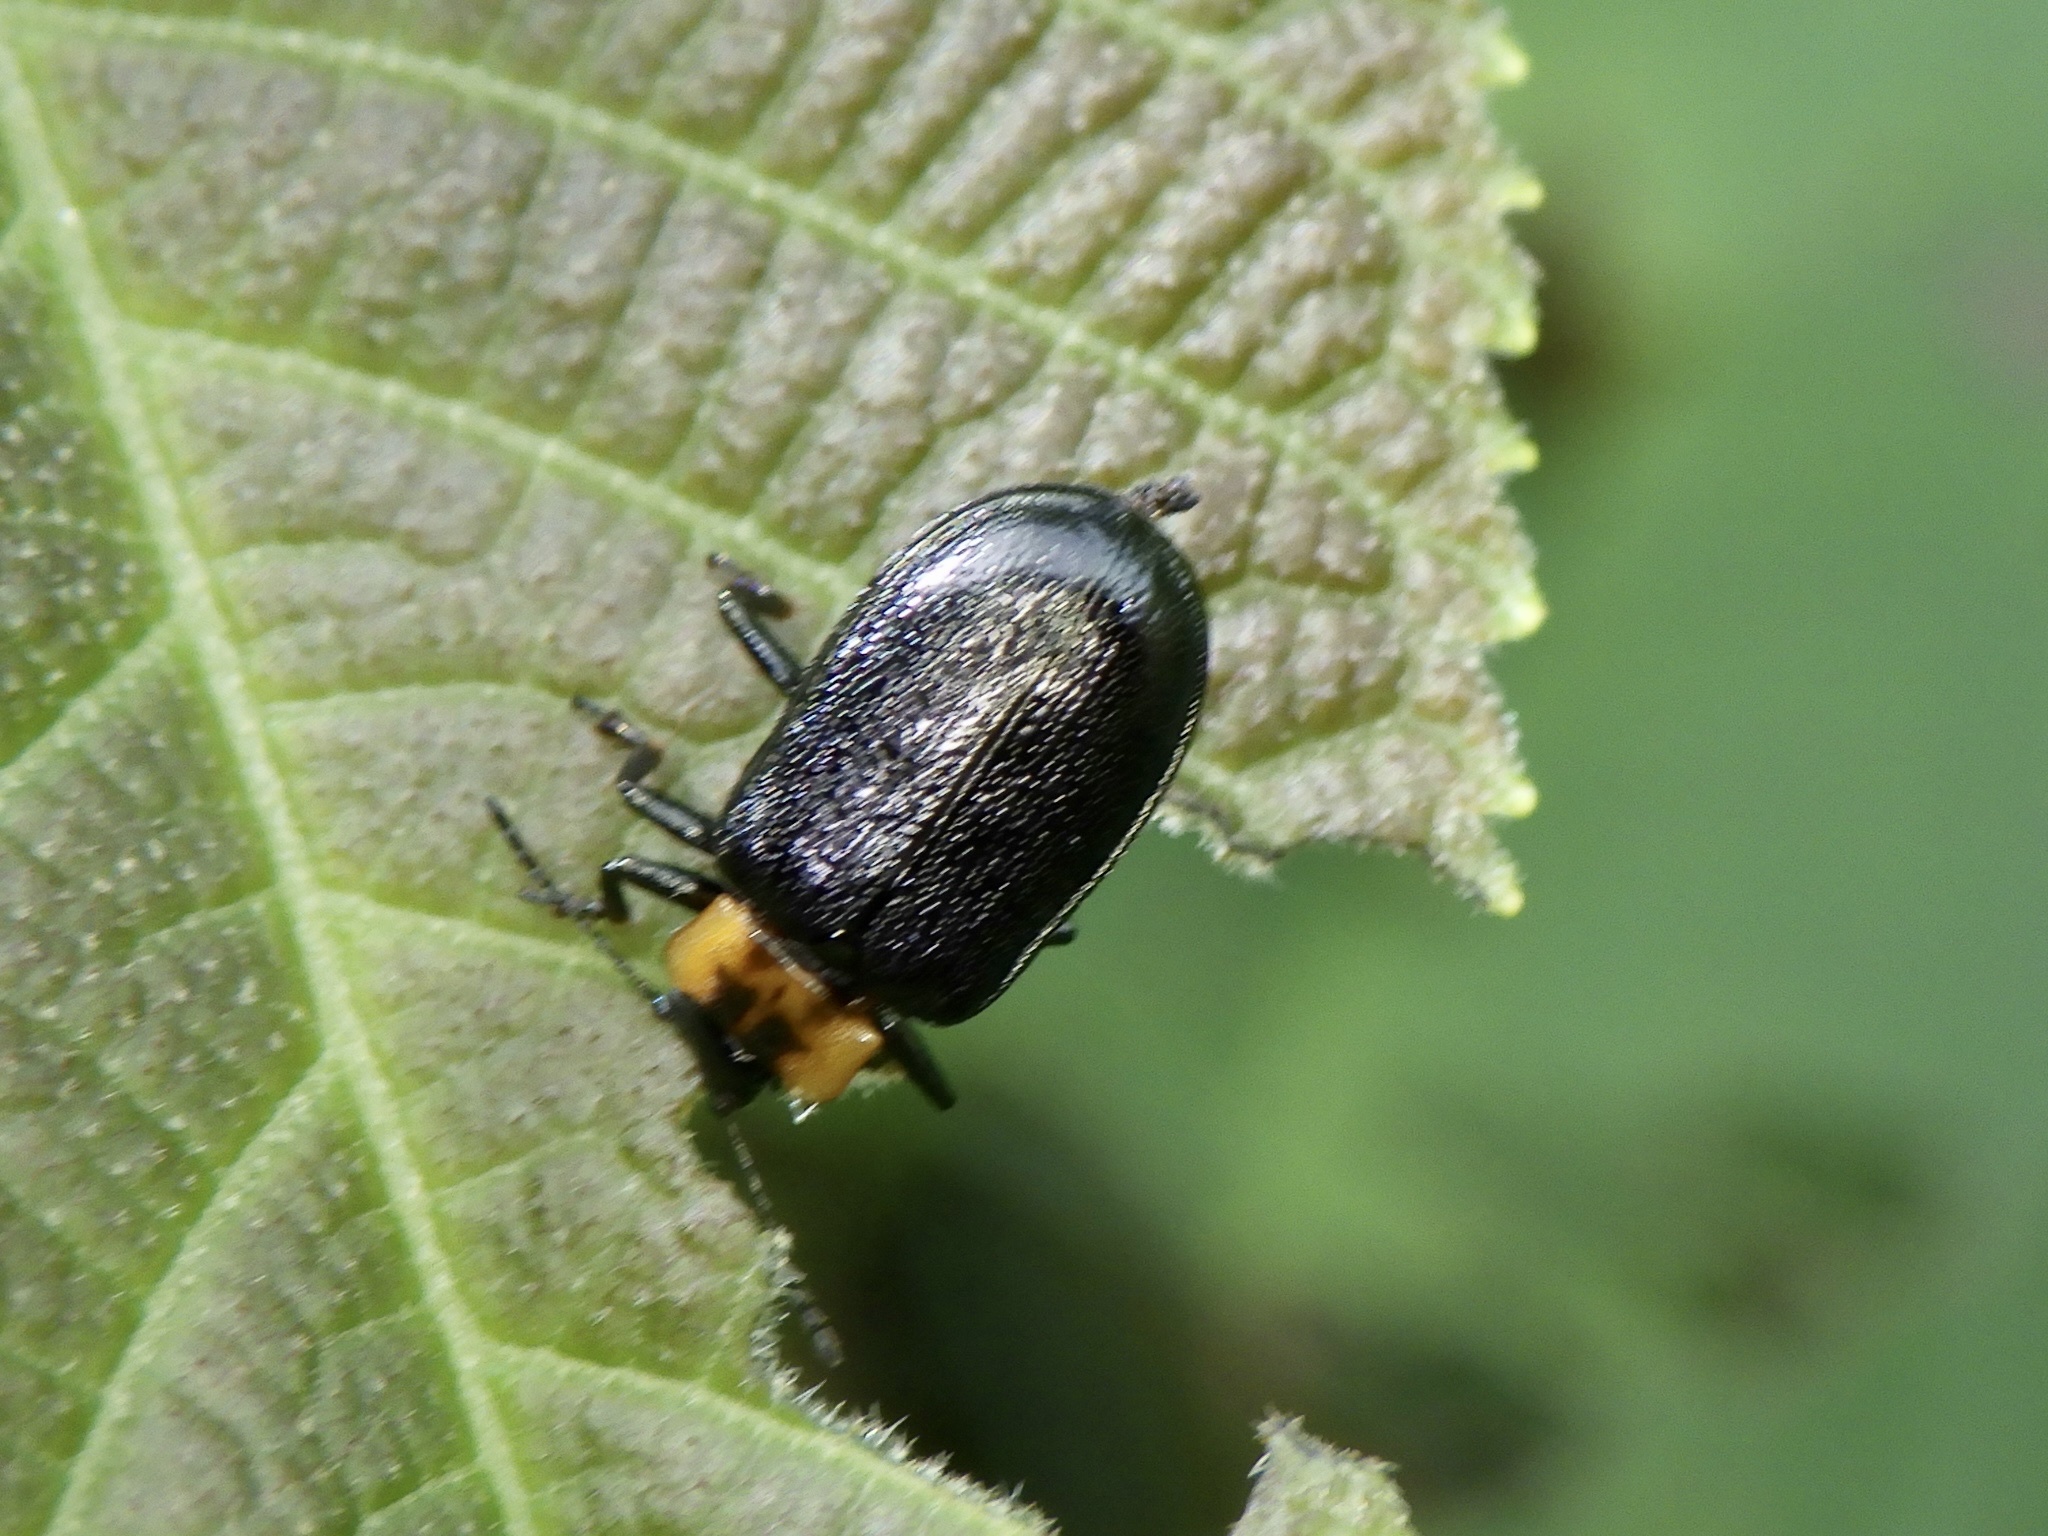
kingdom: Animalia
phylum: Arthropoda
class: Insecta
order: Coleoptera
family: Chrysomelidae
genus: Gastrolina
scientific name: Gastrolina depressa
